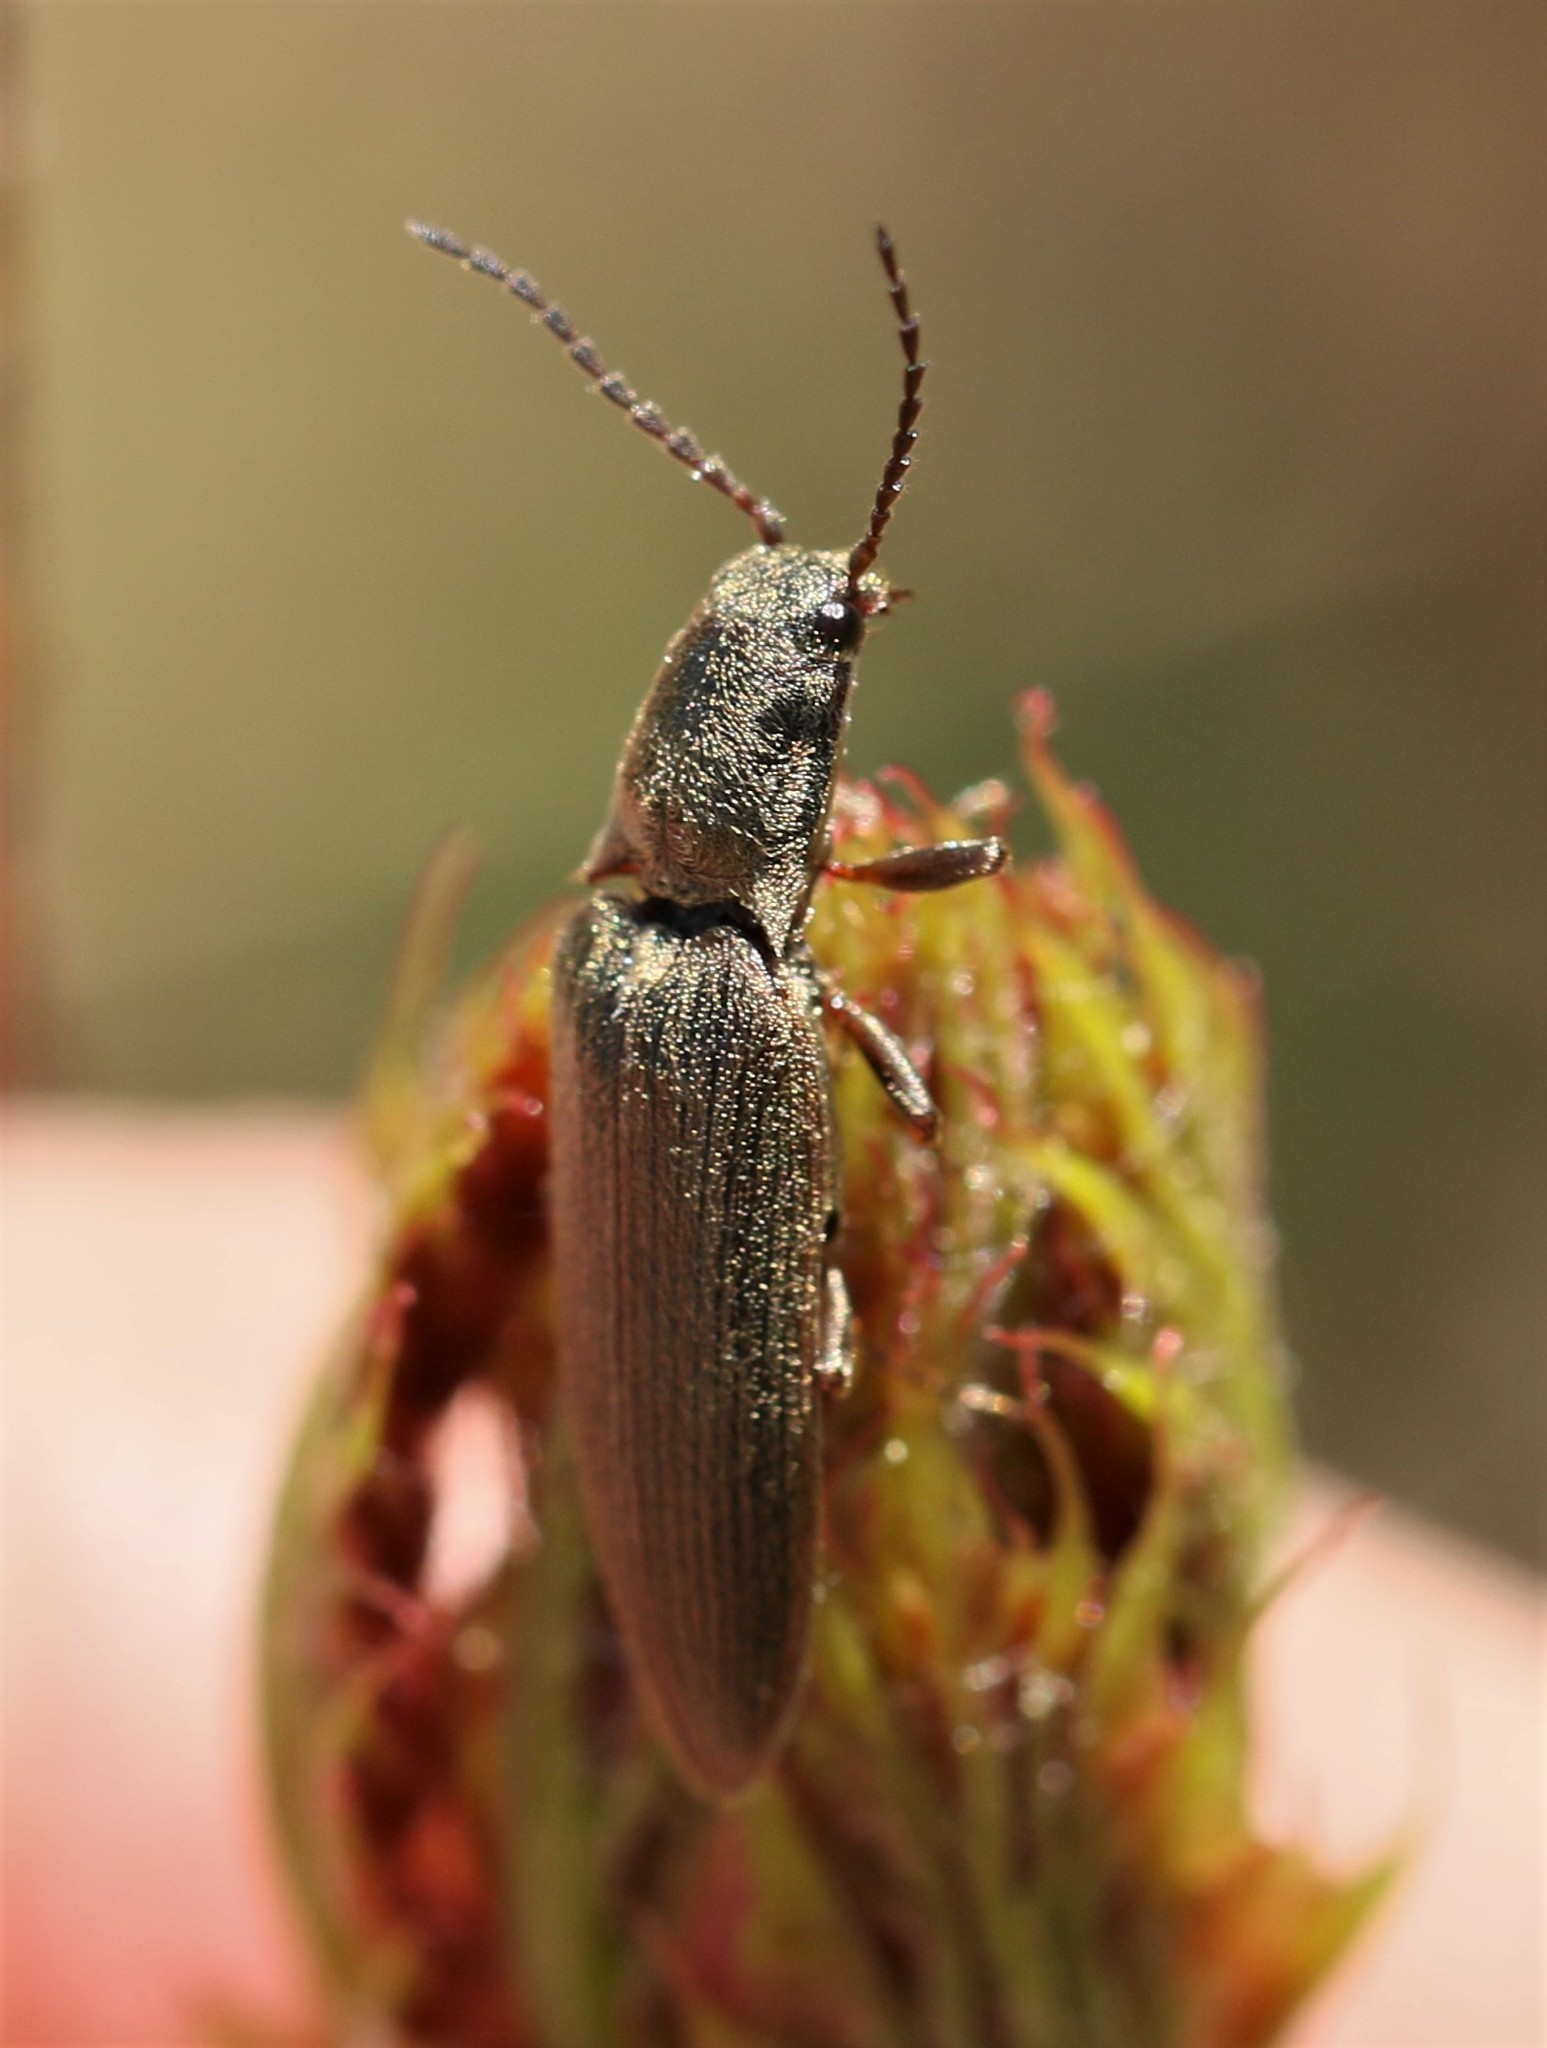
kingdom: Animalia
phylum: Arthropoda
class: Insecta
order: Coleoptera
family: Elateridae
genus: Sylvanelater
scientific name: Sylvanelater cylindriformis
